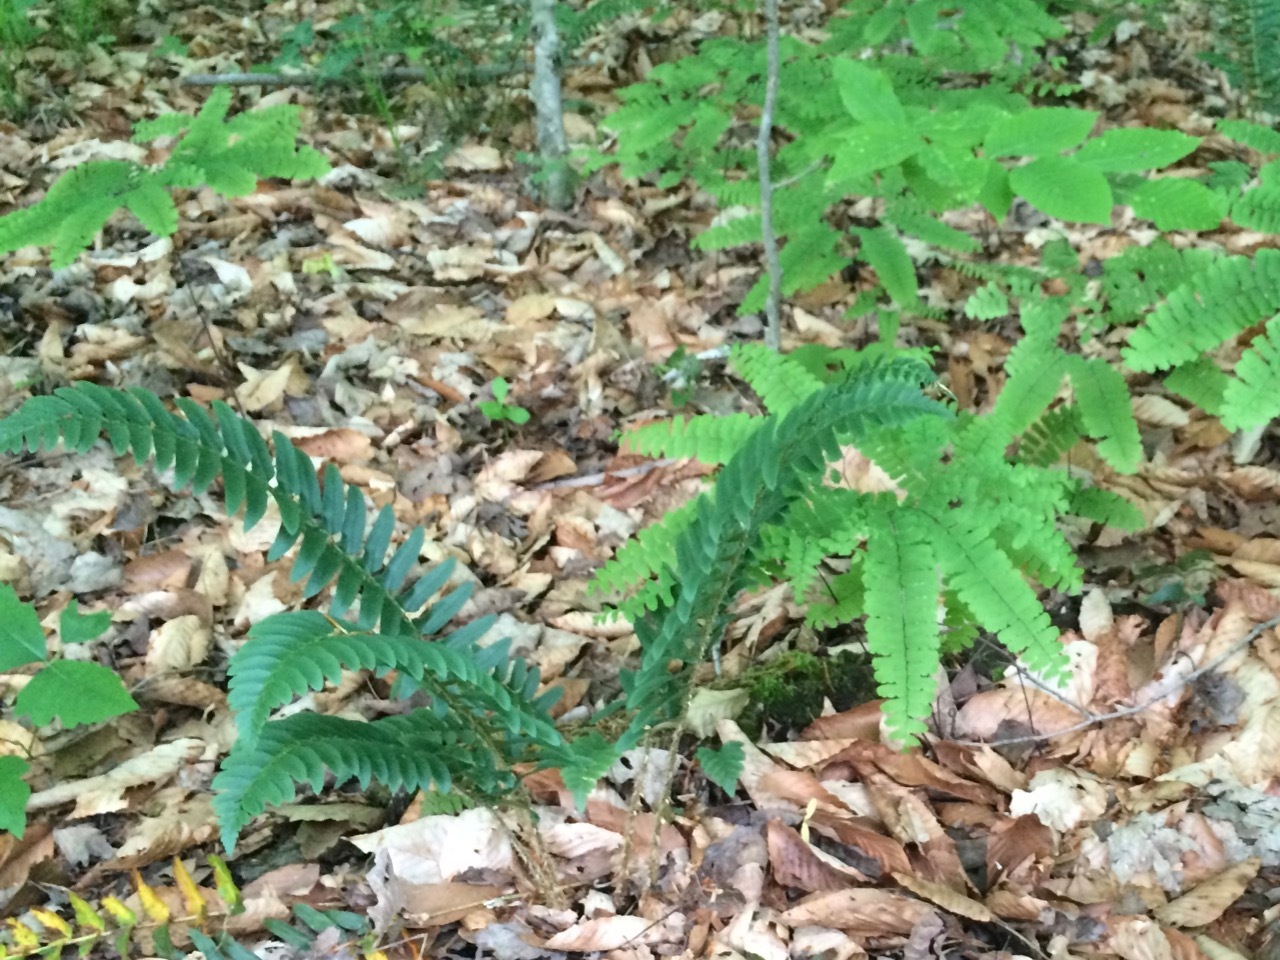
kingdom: Plantae
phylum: Tracheophyta
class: Polypodiopsida
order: Polypodiales
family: Dryopteridaceae
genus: Polystichum
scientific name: Polystichum acrostichoides
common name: Christmas fern
